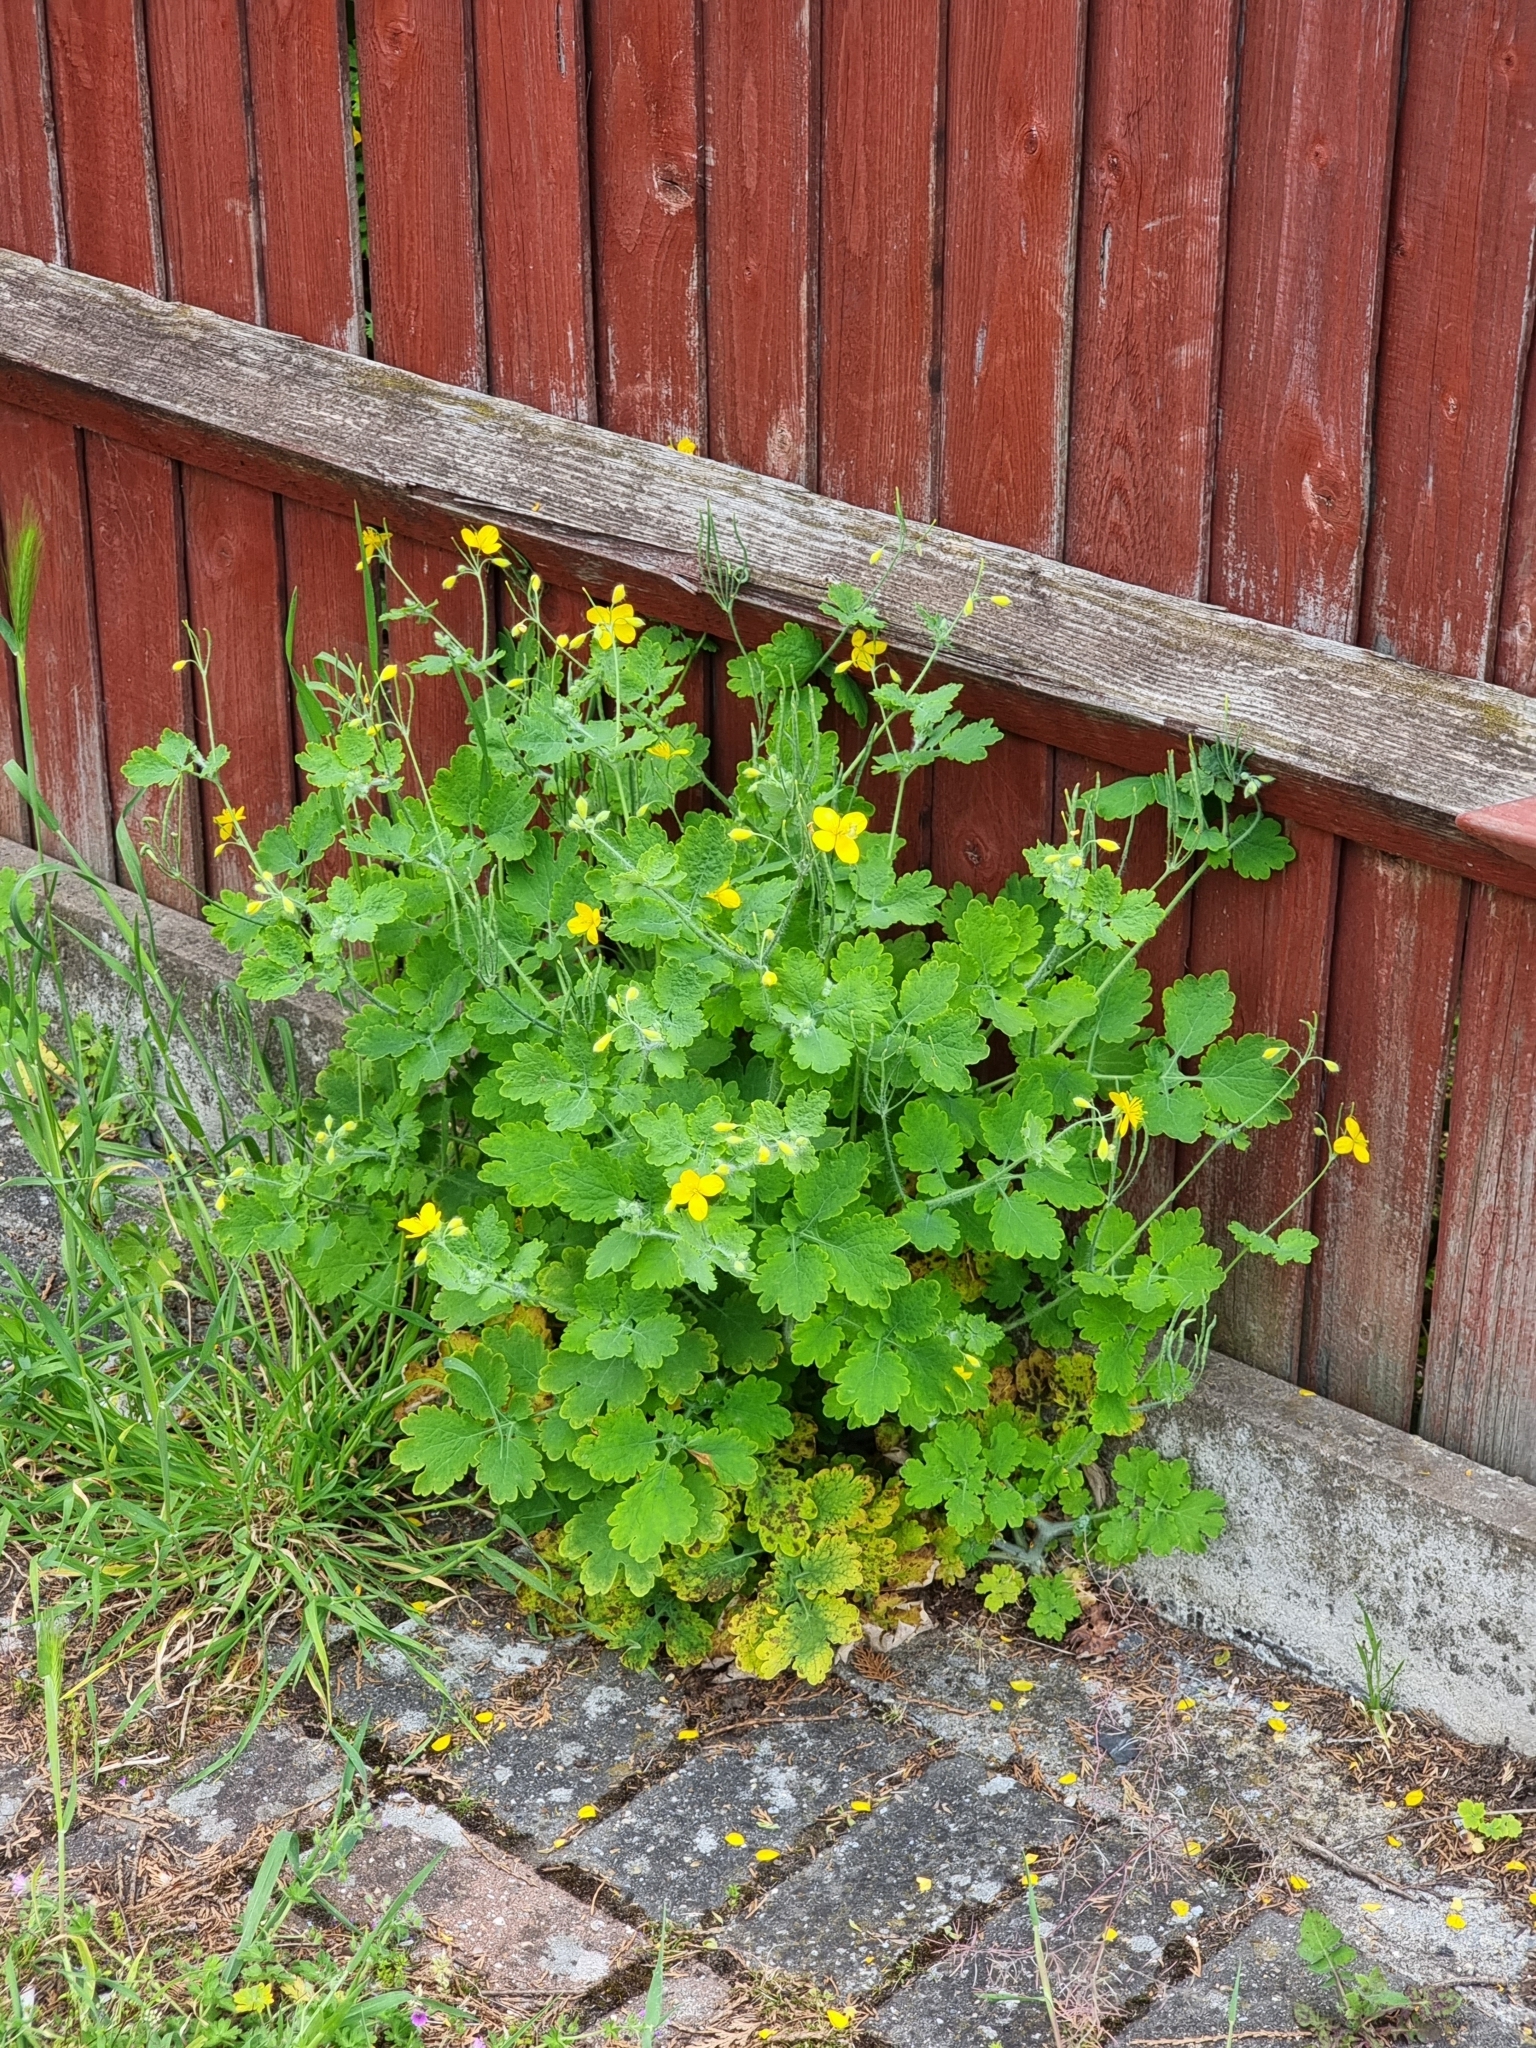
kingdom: Plantae
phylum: Tracheophyta
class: Magnoliopsida
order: Ranunculales
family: Papaveraceae
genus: Chelidonium
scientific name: Chelidonium majus
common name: Greater celandine
